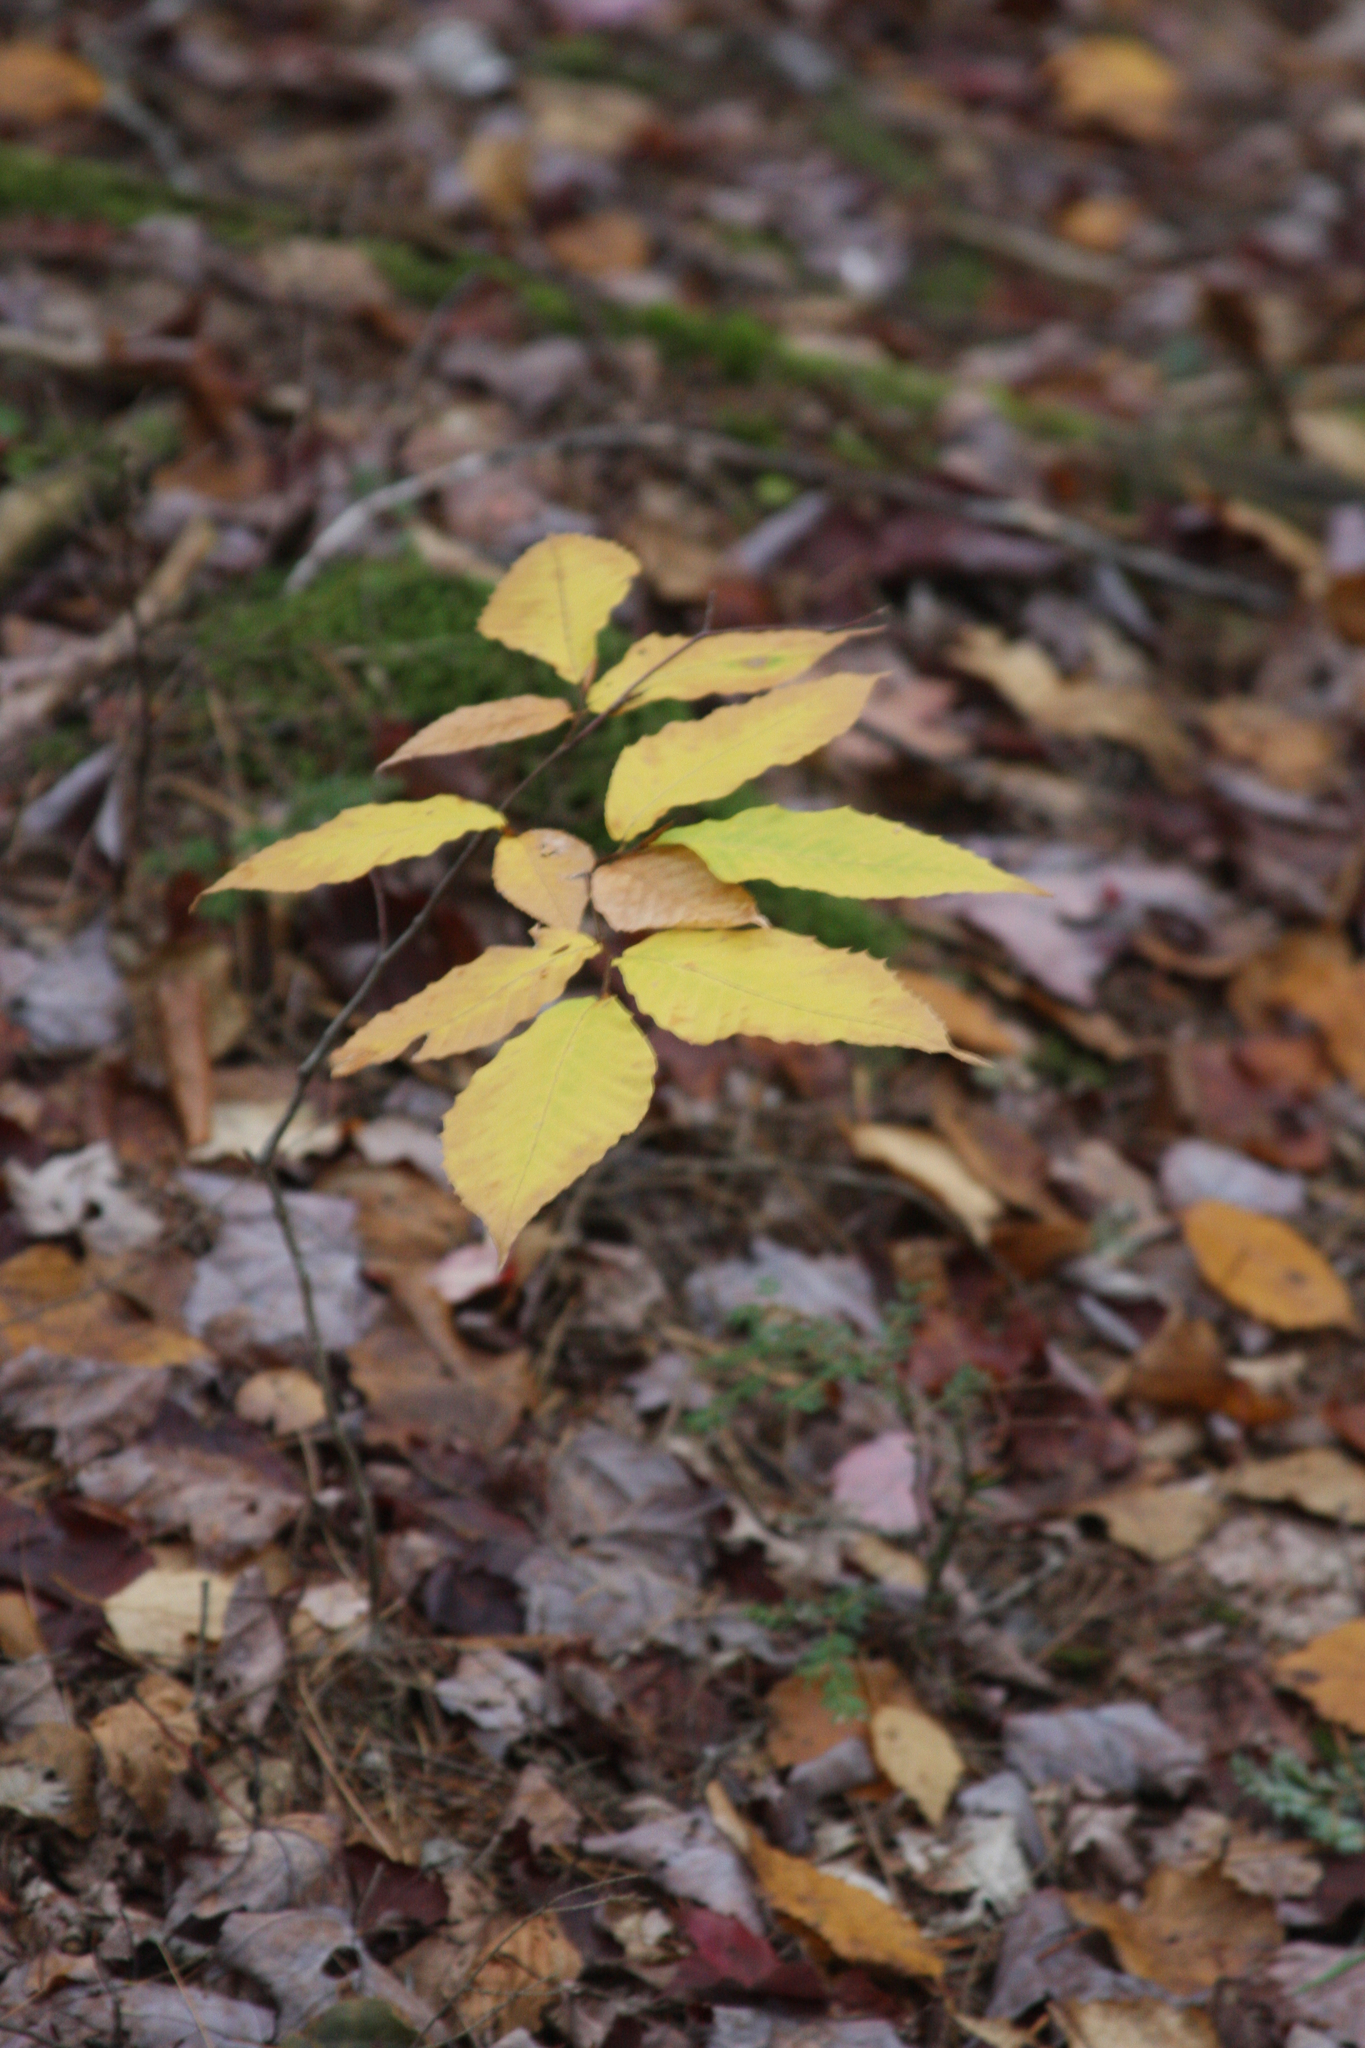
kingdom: Plantae
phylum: Tracheophyta
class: Magnoliopsida
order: Fagales
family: Fagaceae
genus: Fagus
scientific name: Fagus grandifolia
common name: American beech
